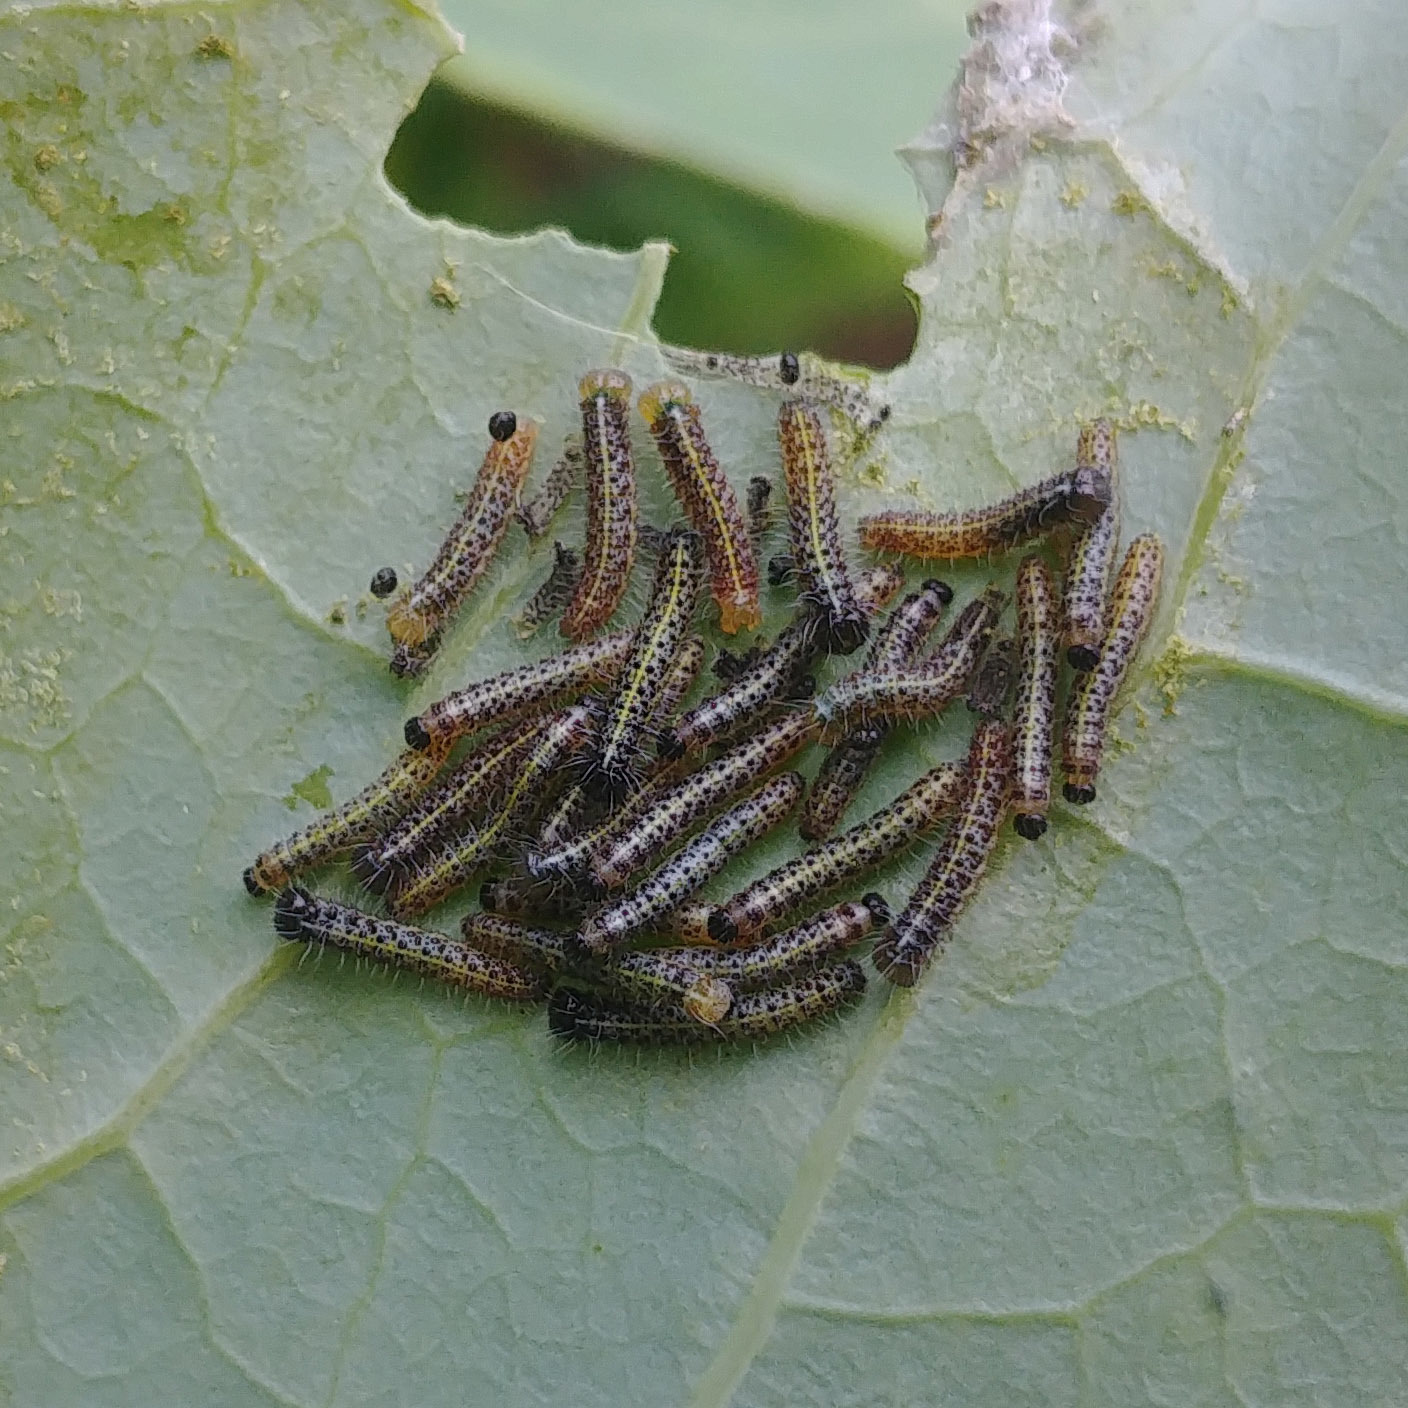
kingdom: Animalia
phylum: Arthropoda
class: Insecta
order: Lepidoptera
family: Pieridae
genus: Pieris
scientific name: Pieris brassicae
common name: Large white
